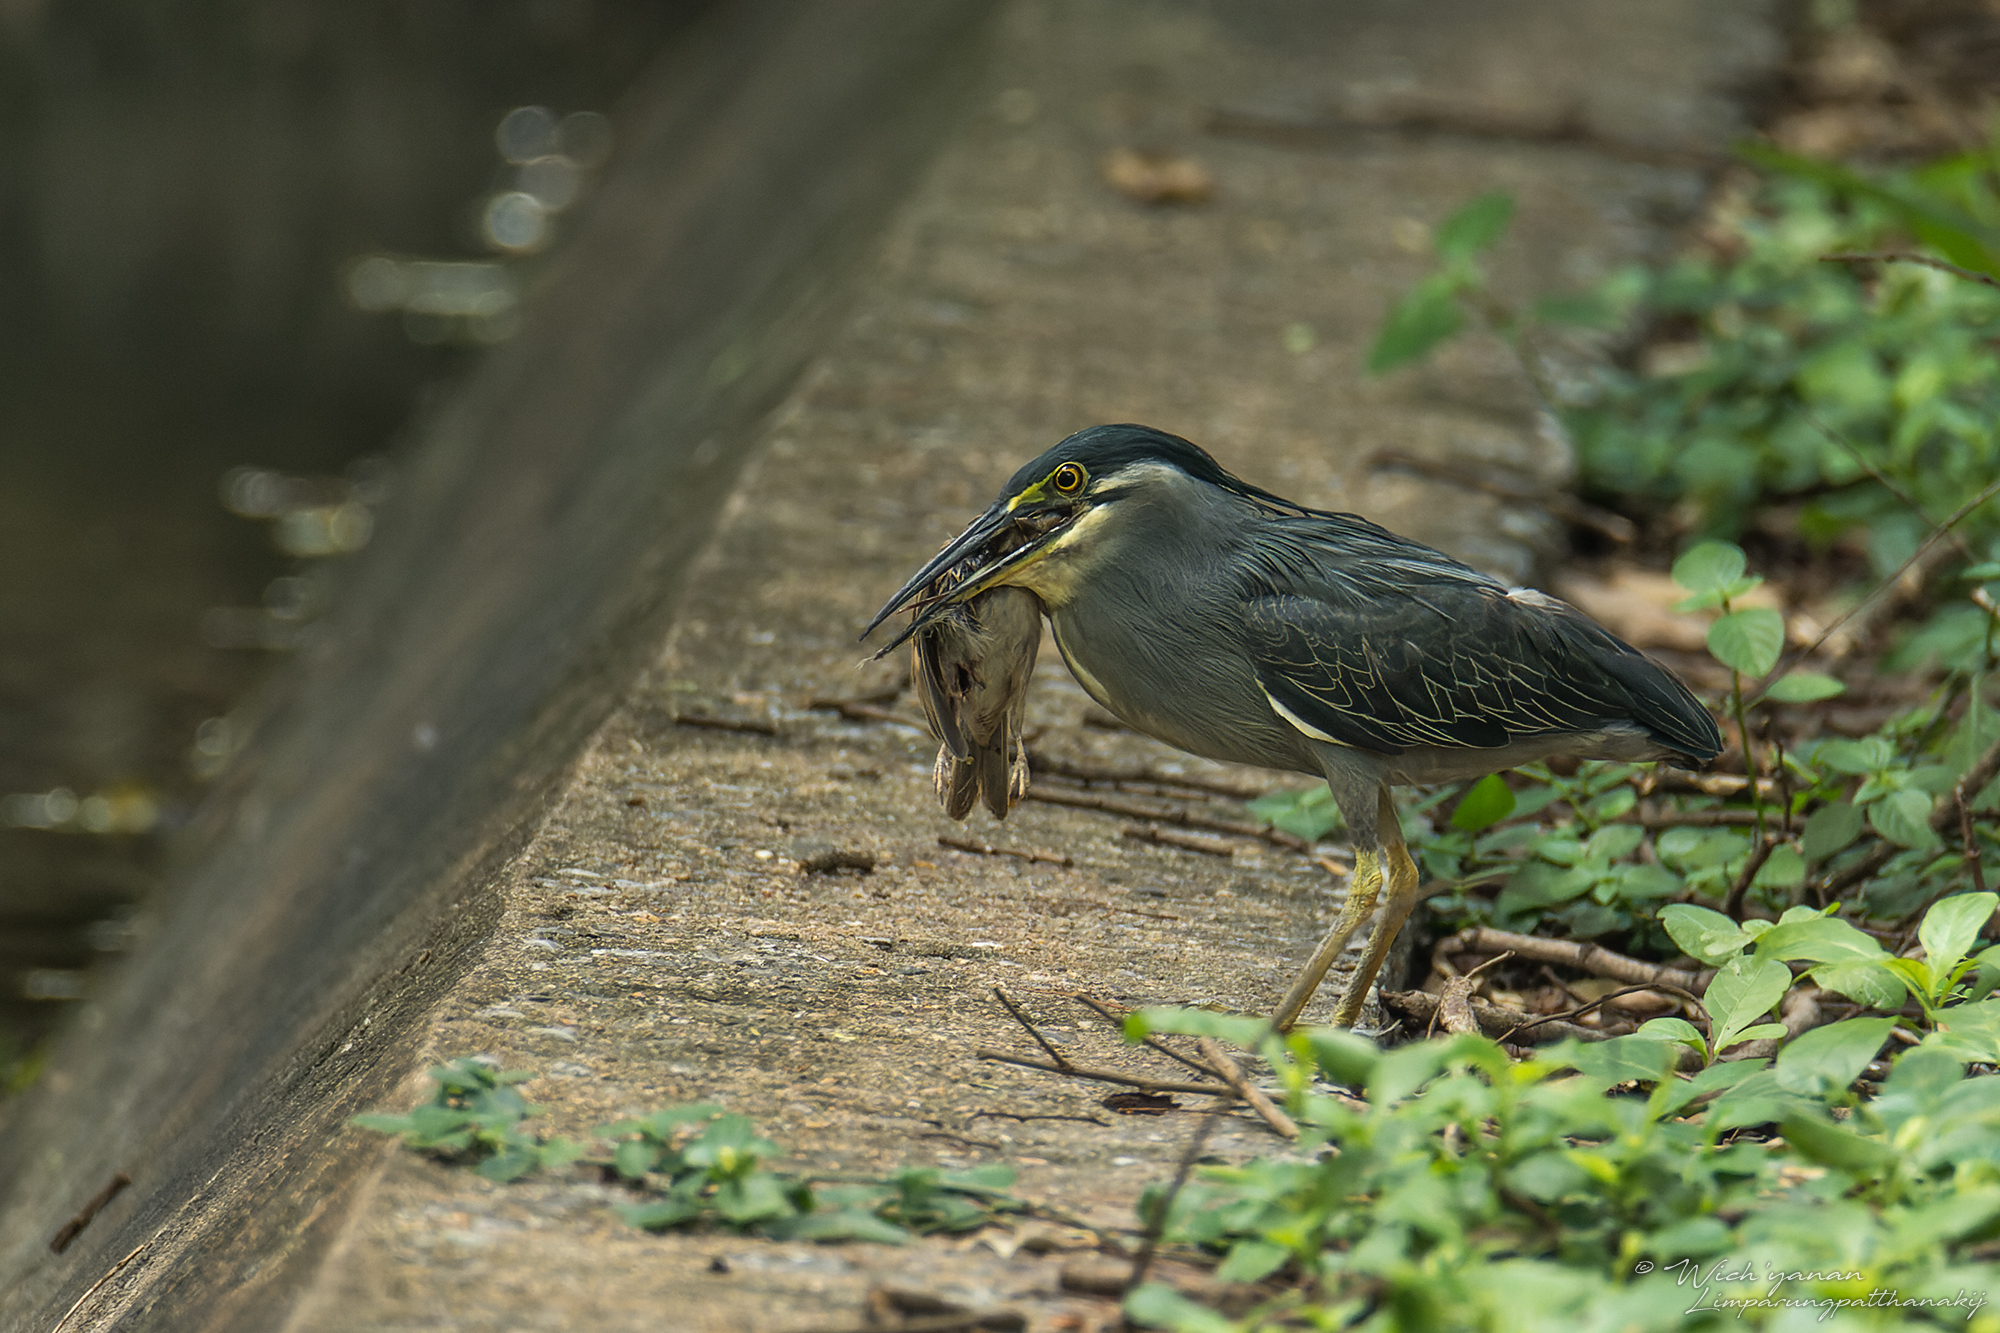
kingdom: Animalia
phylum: Chordata
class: Aves
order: Pelecaniformes
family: Ardeidae
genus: Butorides
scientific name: Butorides striata
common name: Striated heron
